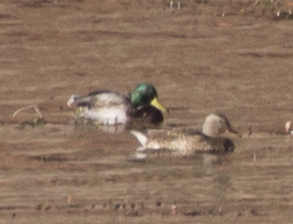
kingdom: Animalia
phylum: Chordata
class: Aves
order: Anseriformes
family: Anatidae
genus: Anas
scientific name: Anas platyrhynchos
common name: Mallard
